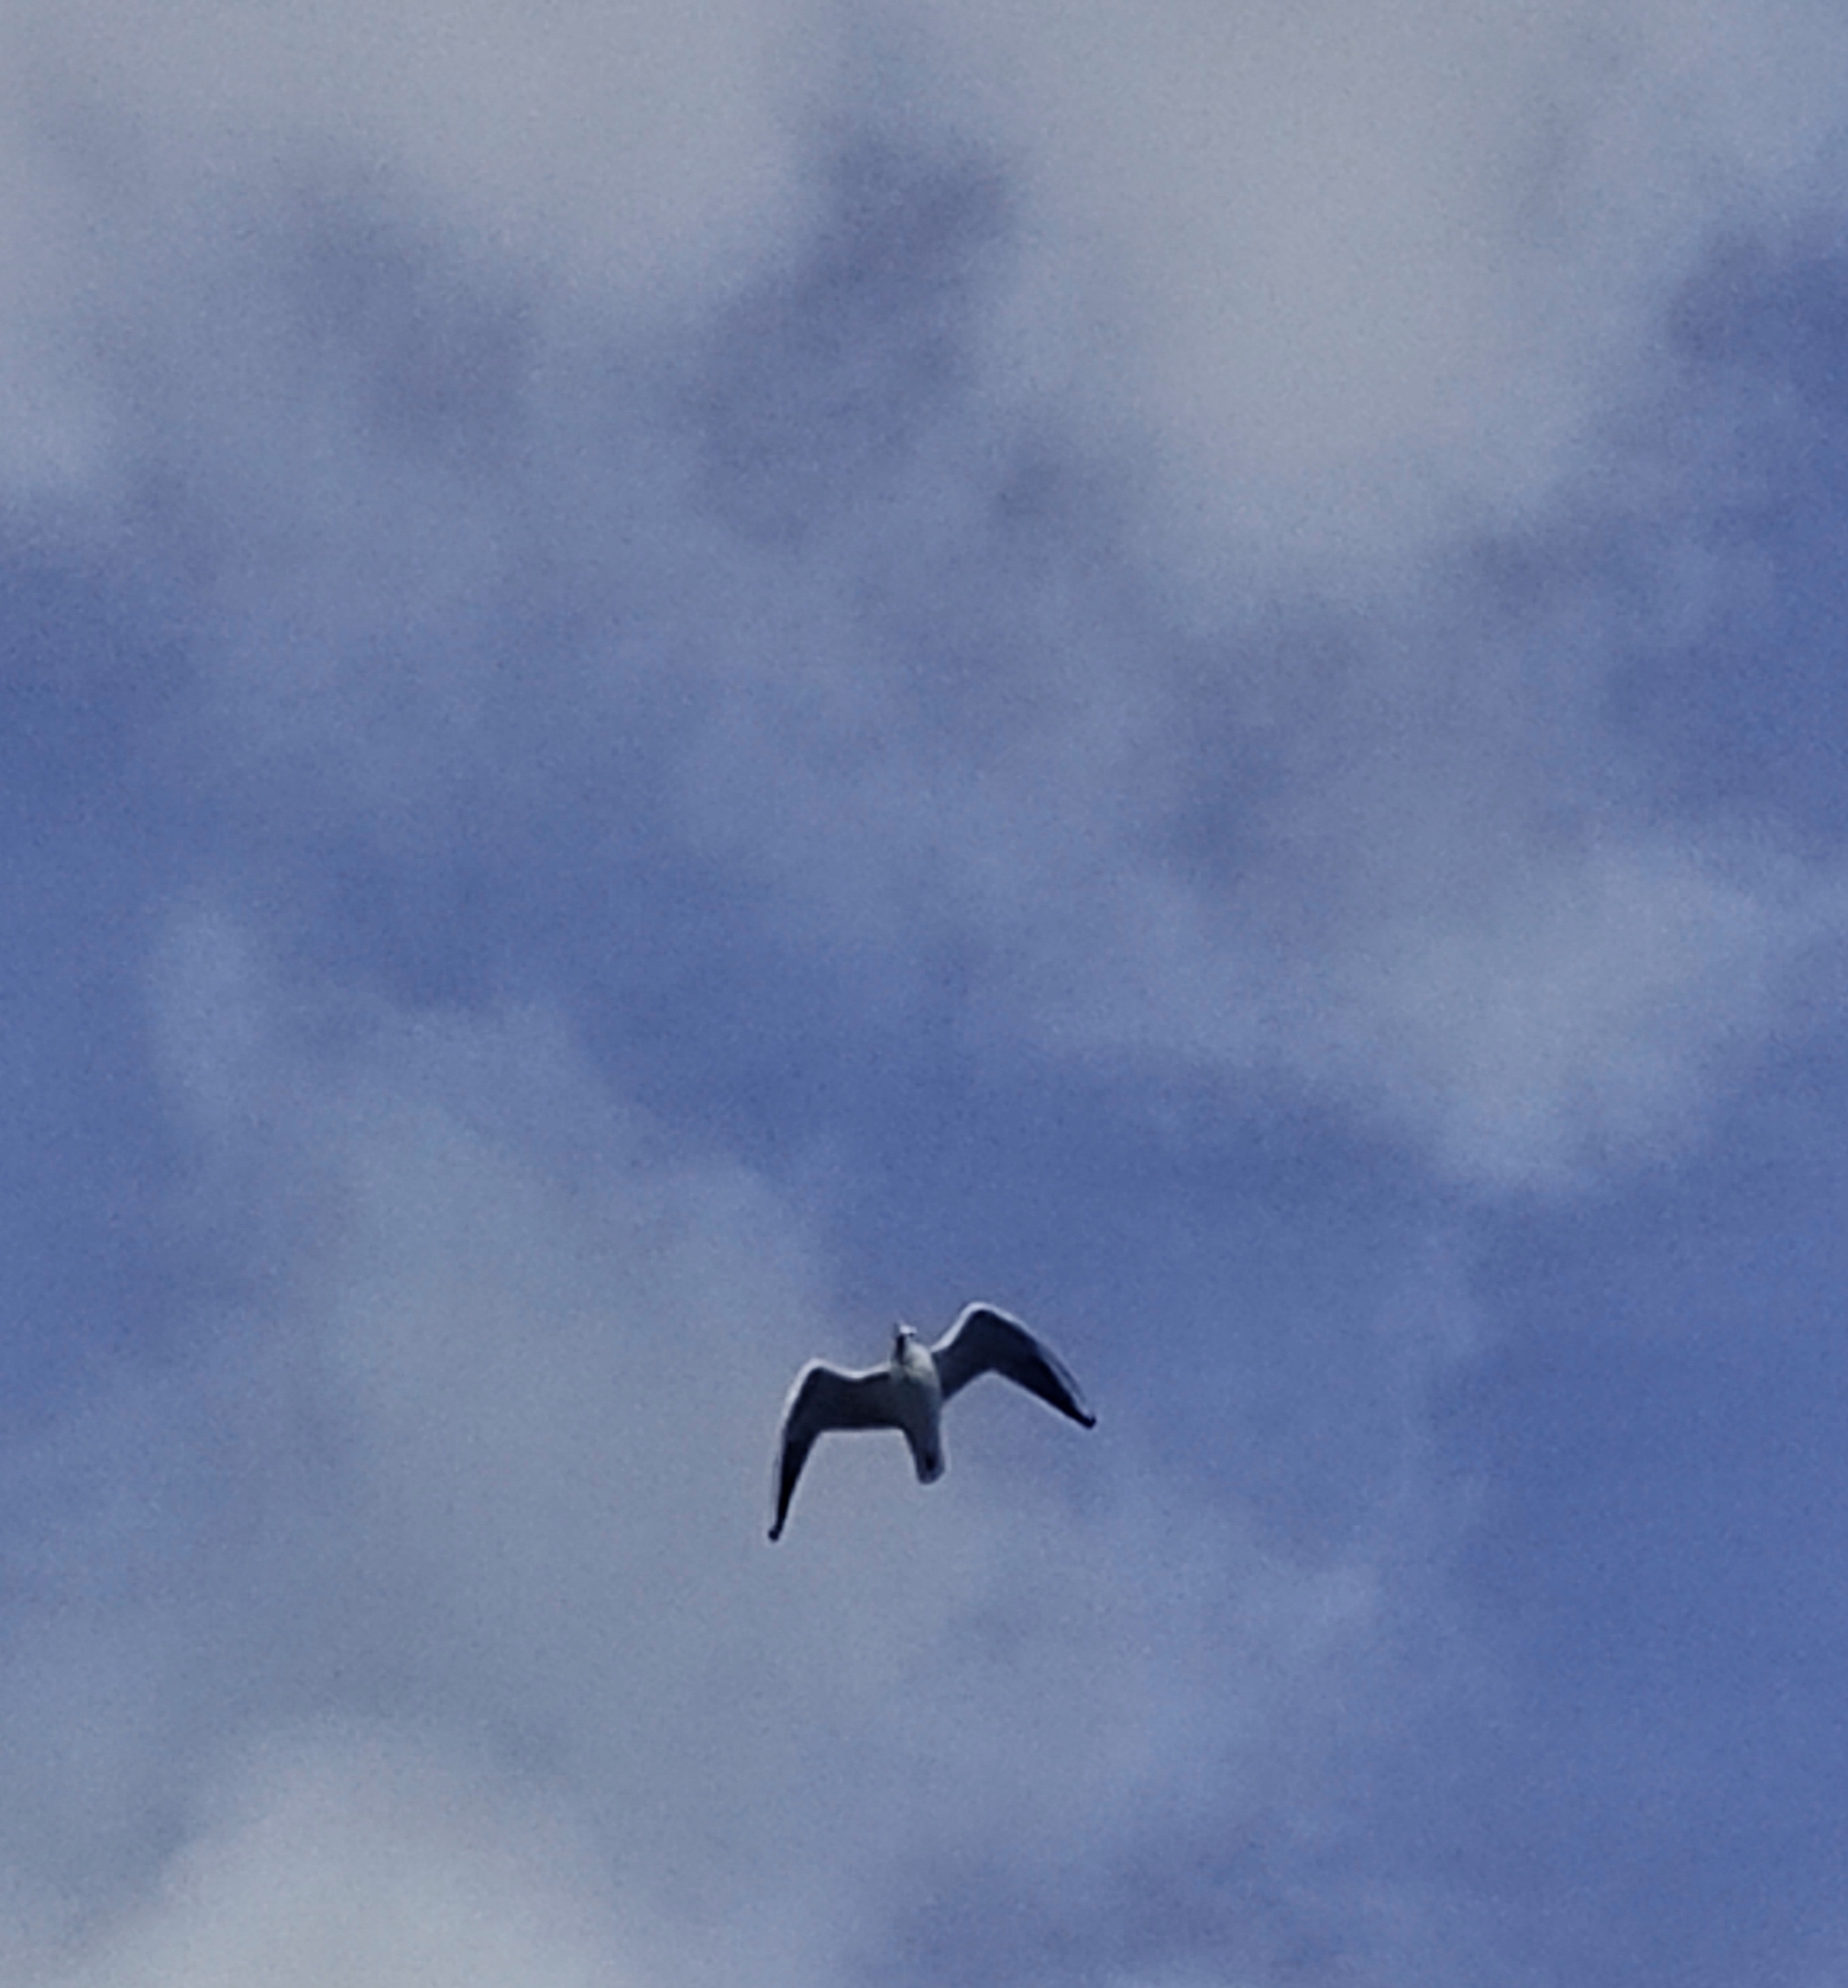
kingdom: Animalia
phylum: Chordata
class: Aves
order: Charadriiformes
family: Laridae
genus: Chroicocephalus
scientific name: Chroicocephalus ridibundus
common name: Black-headed gull
